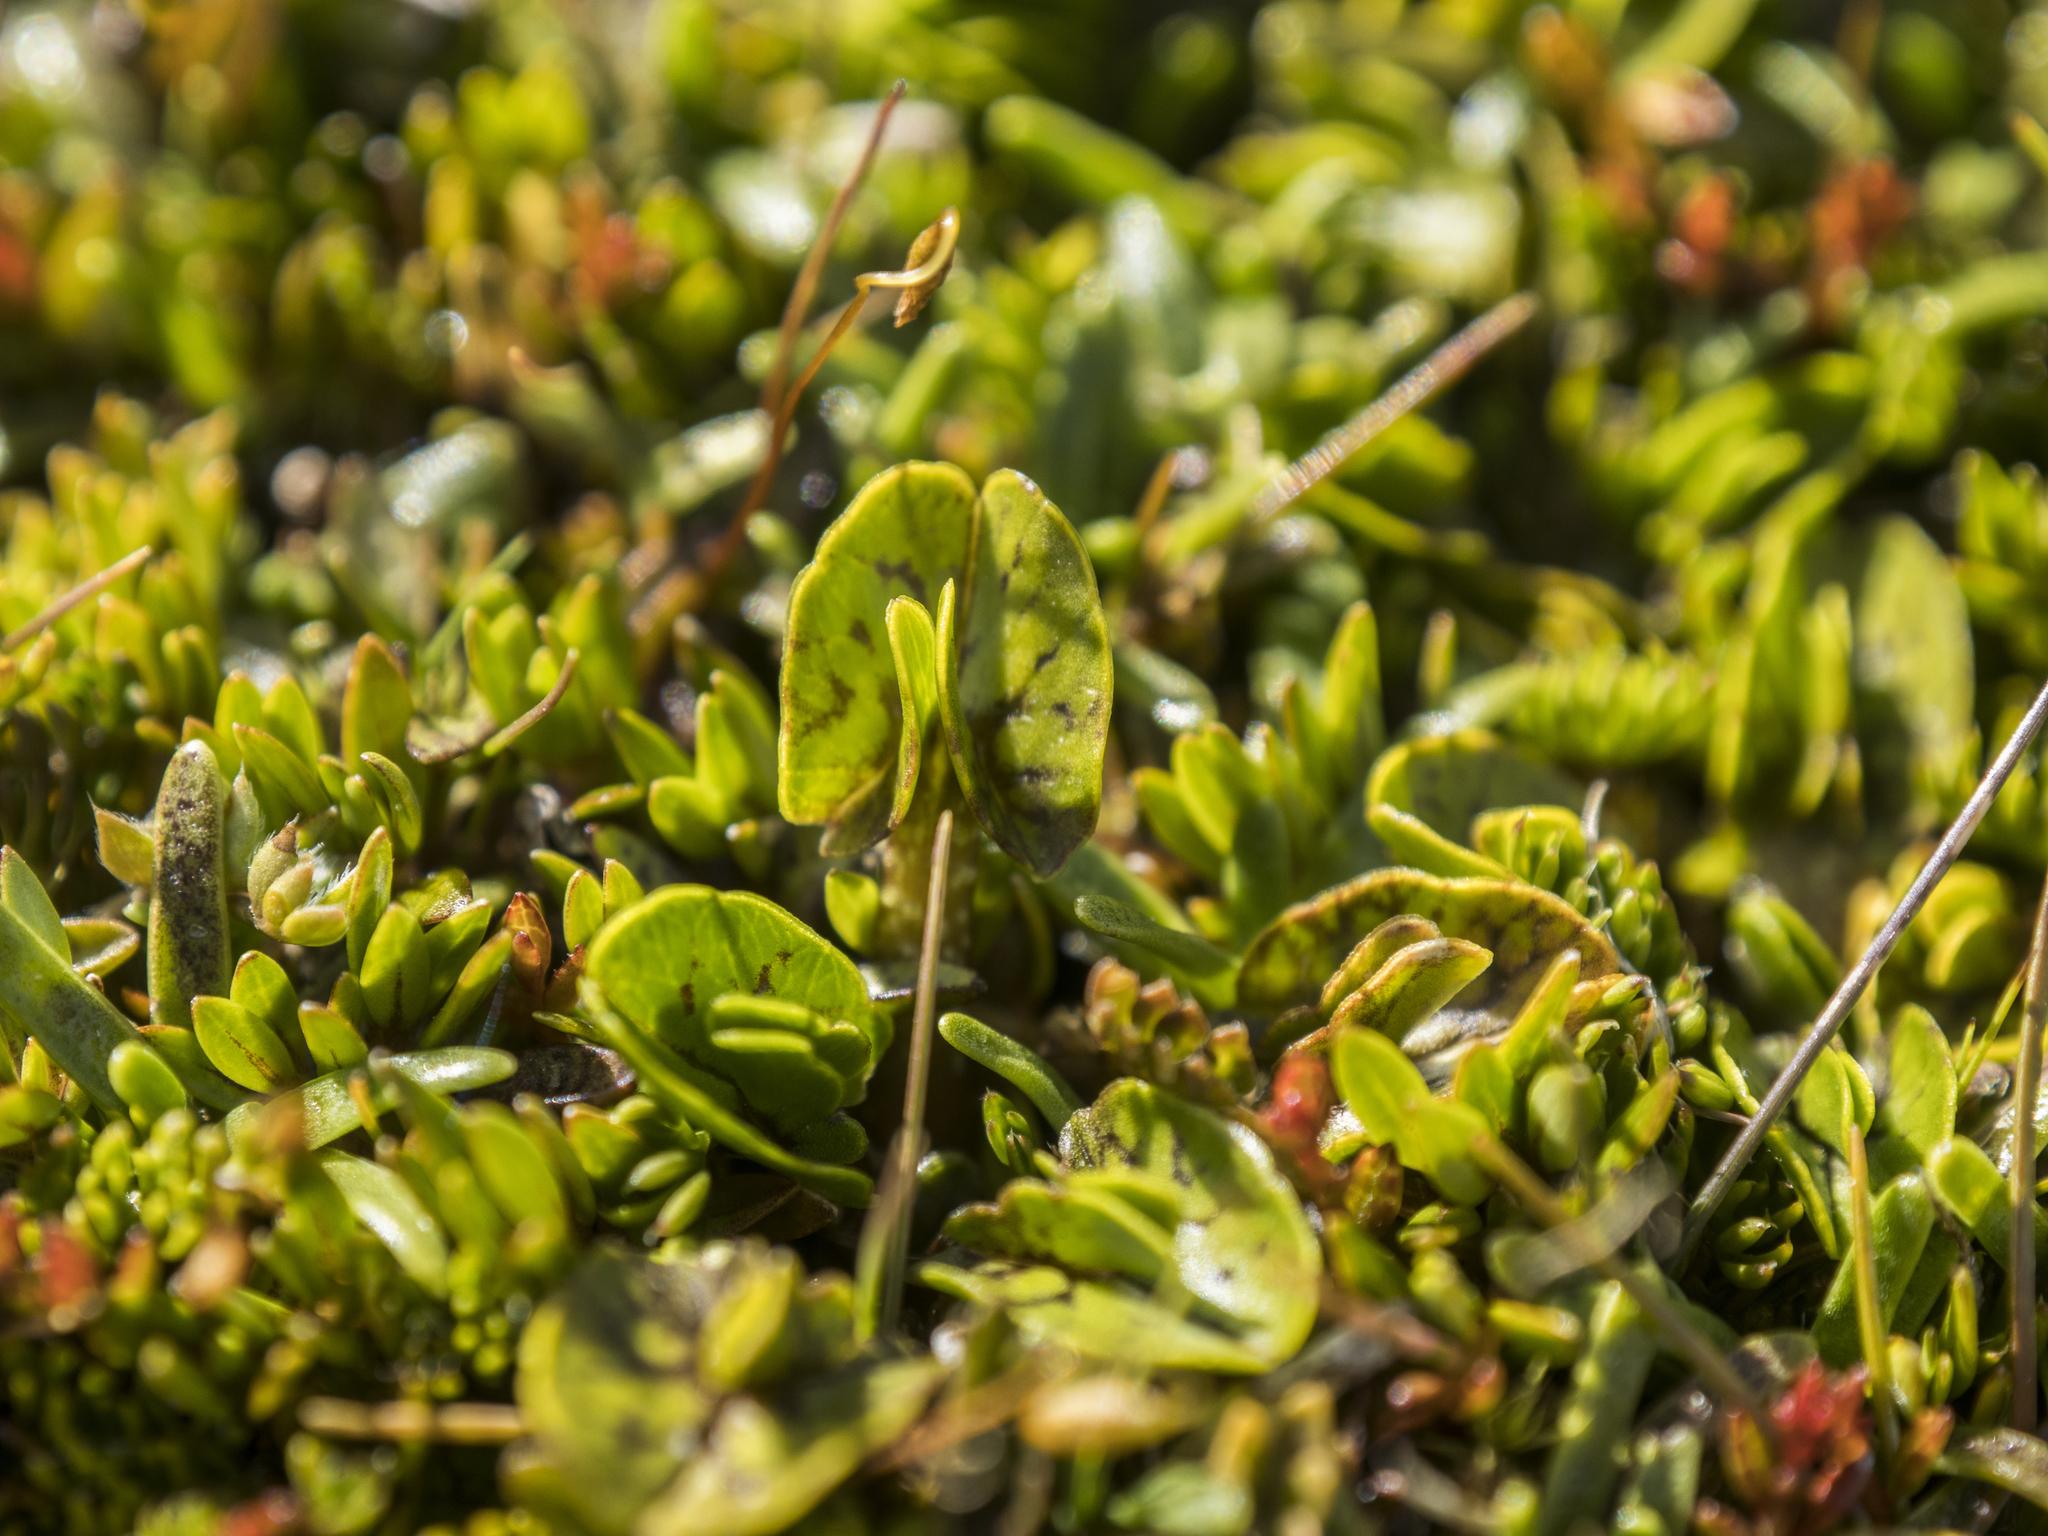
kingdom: Plantae
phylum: Tracheophyta
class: Magnoliopsida
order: Ranunculales
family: Ranunculaceae
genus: Caltha
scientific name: Caltha obtusa
